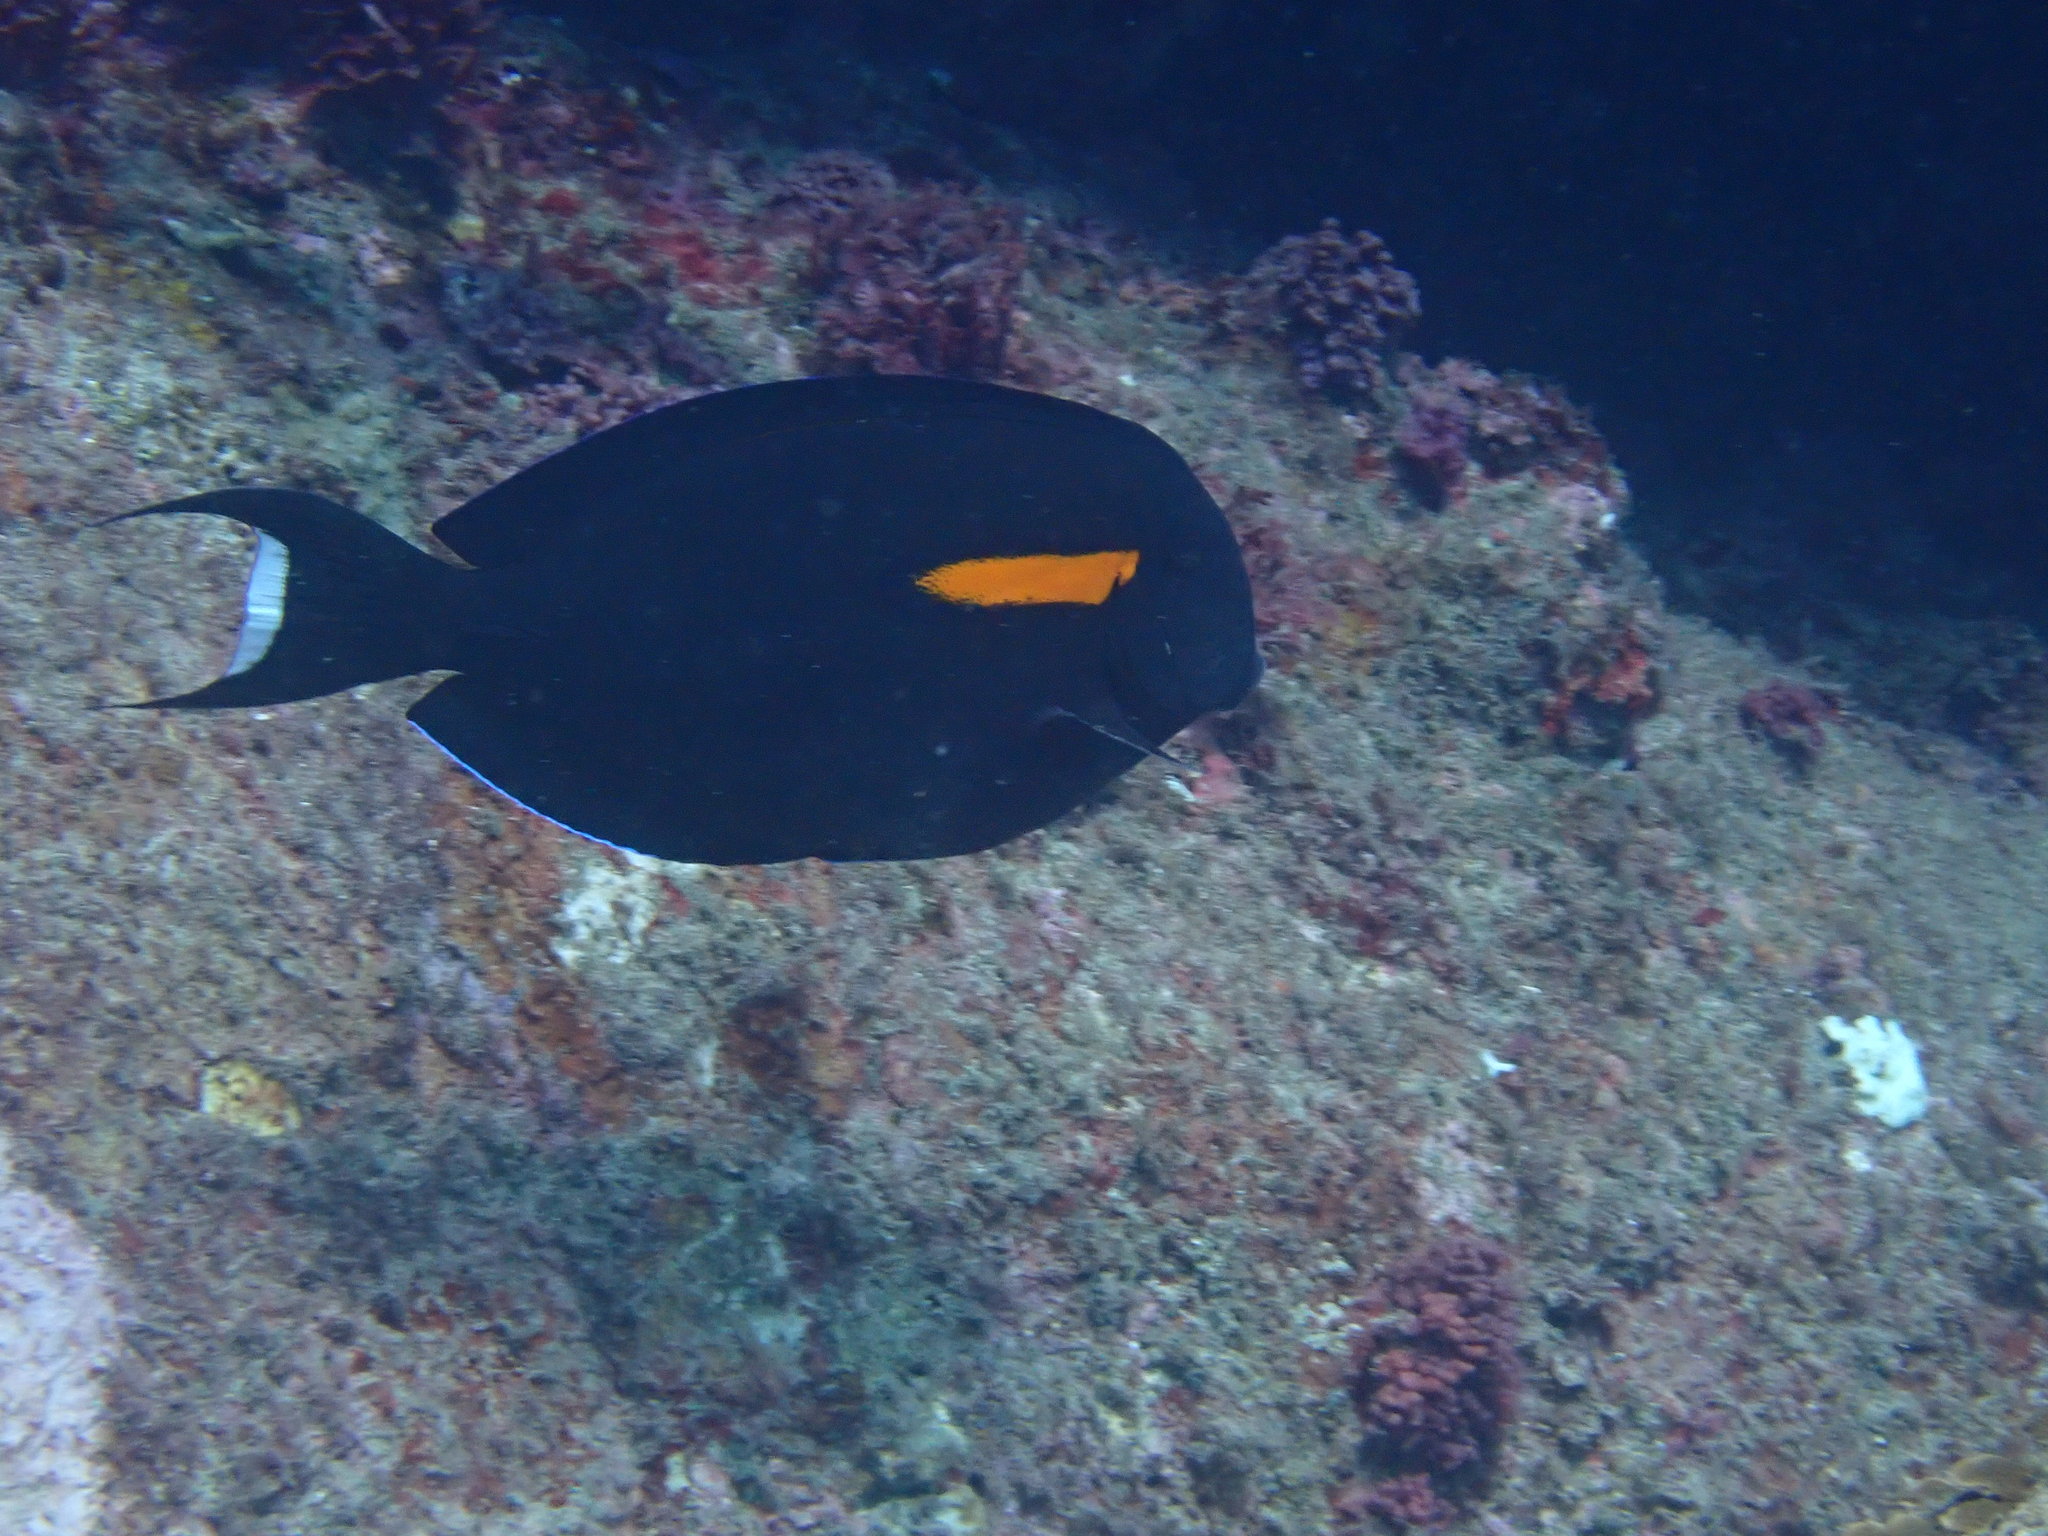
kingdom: Animalia
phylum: Chordata
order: Perciformes
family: Acanthuridae
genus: Acanthurus
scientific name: Acanthurus olivaceus
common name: Gendarme fish
